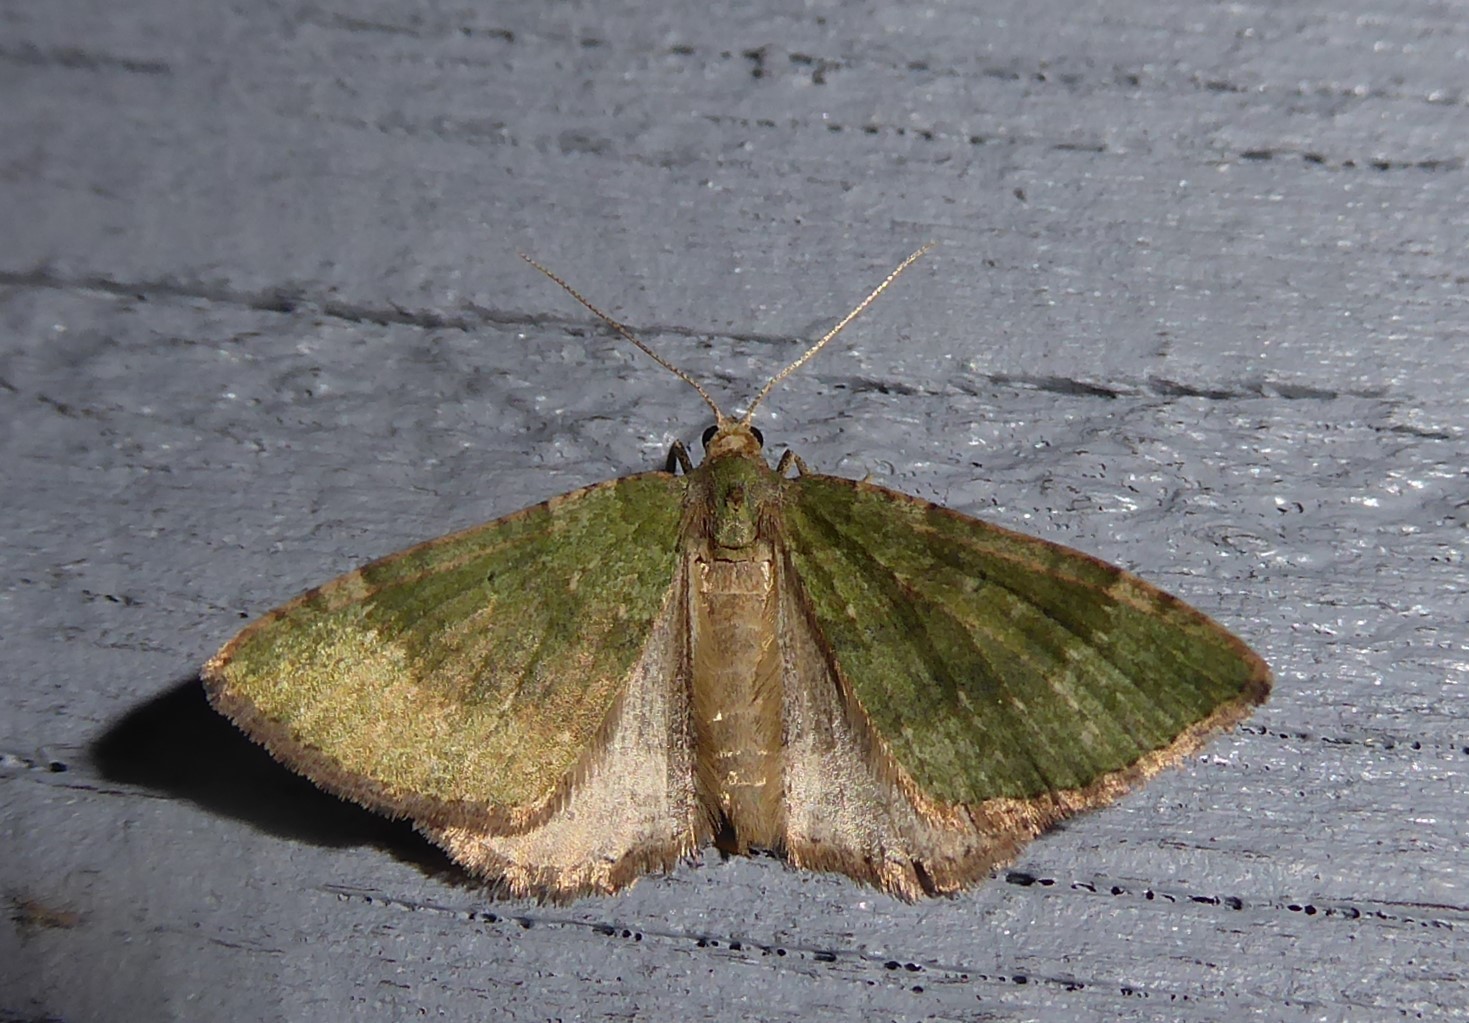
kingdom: Animalia
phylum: Arthropoda
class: Insecta
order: Lepidoptera
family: Geometridae
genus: Epyaxa
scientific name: Epyaxa rosearia
